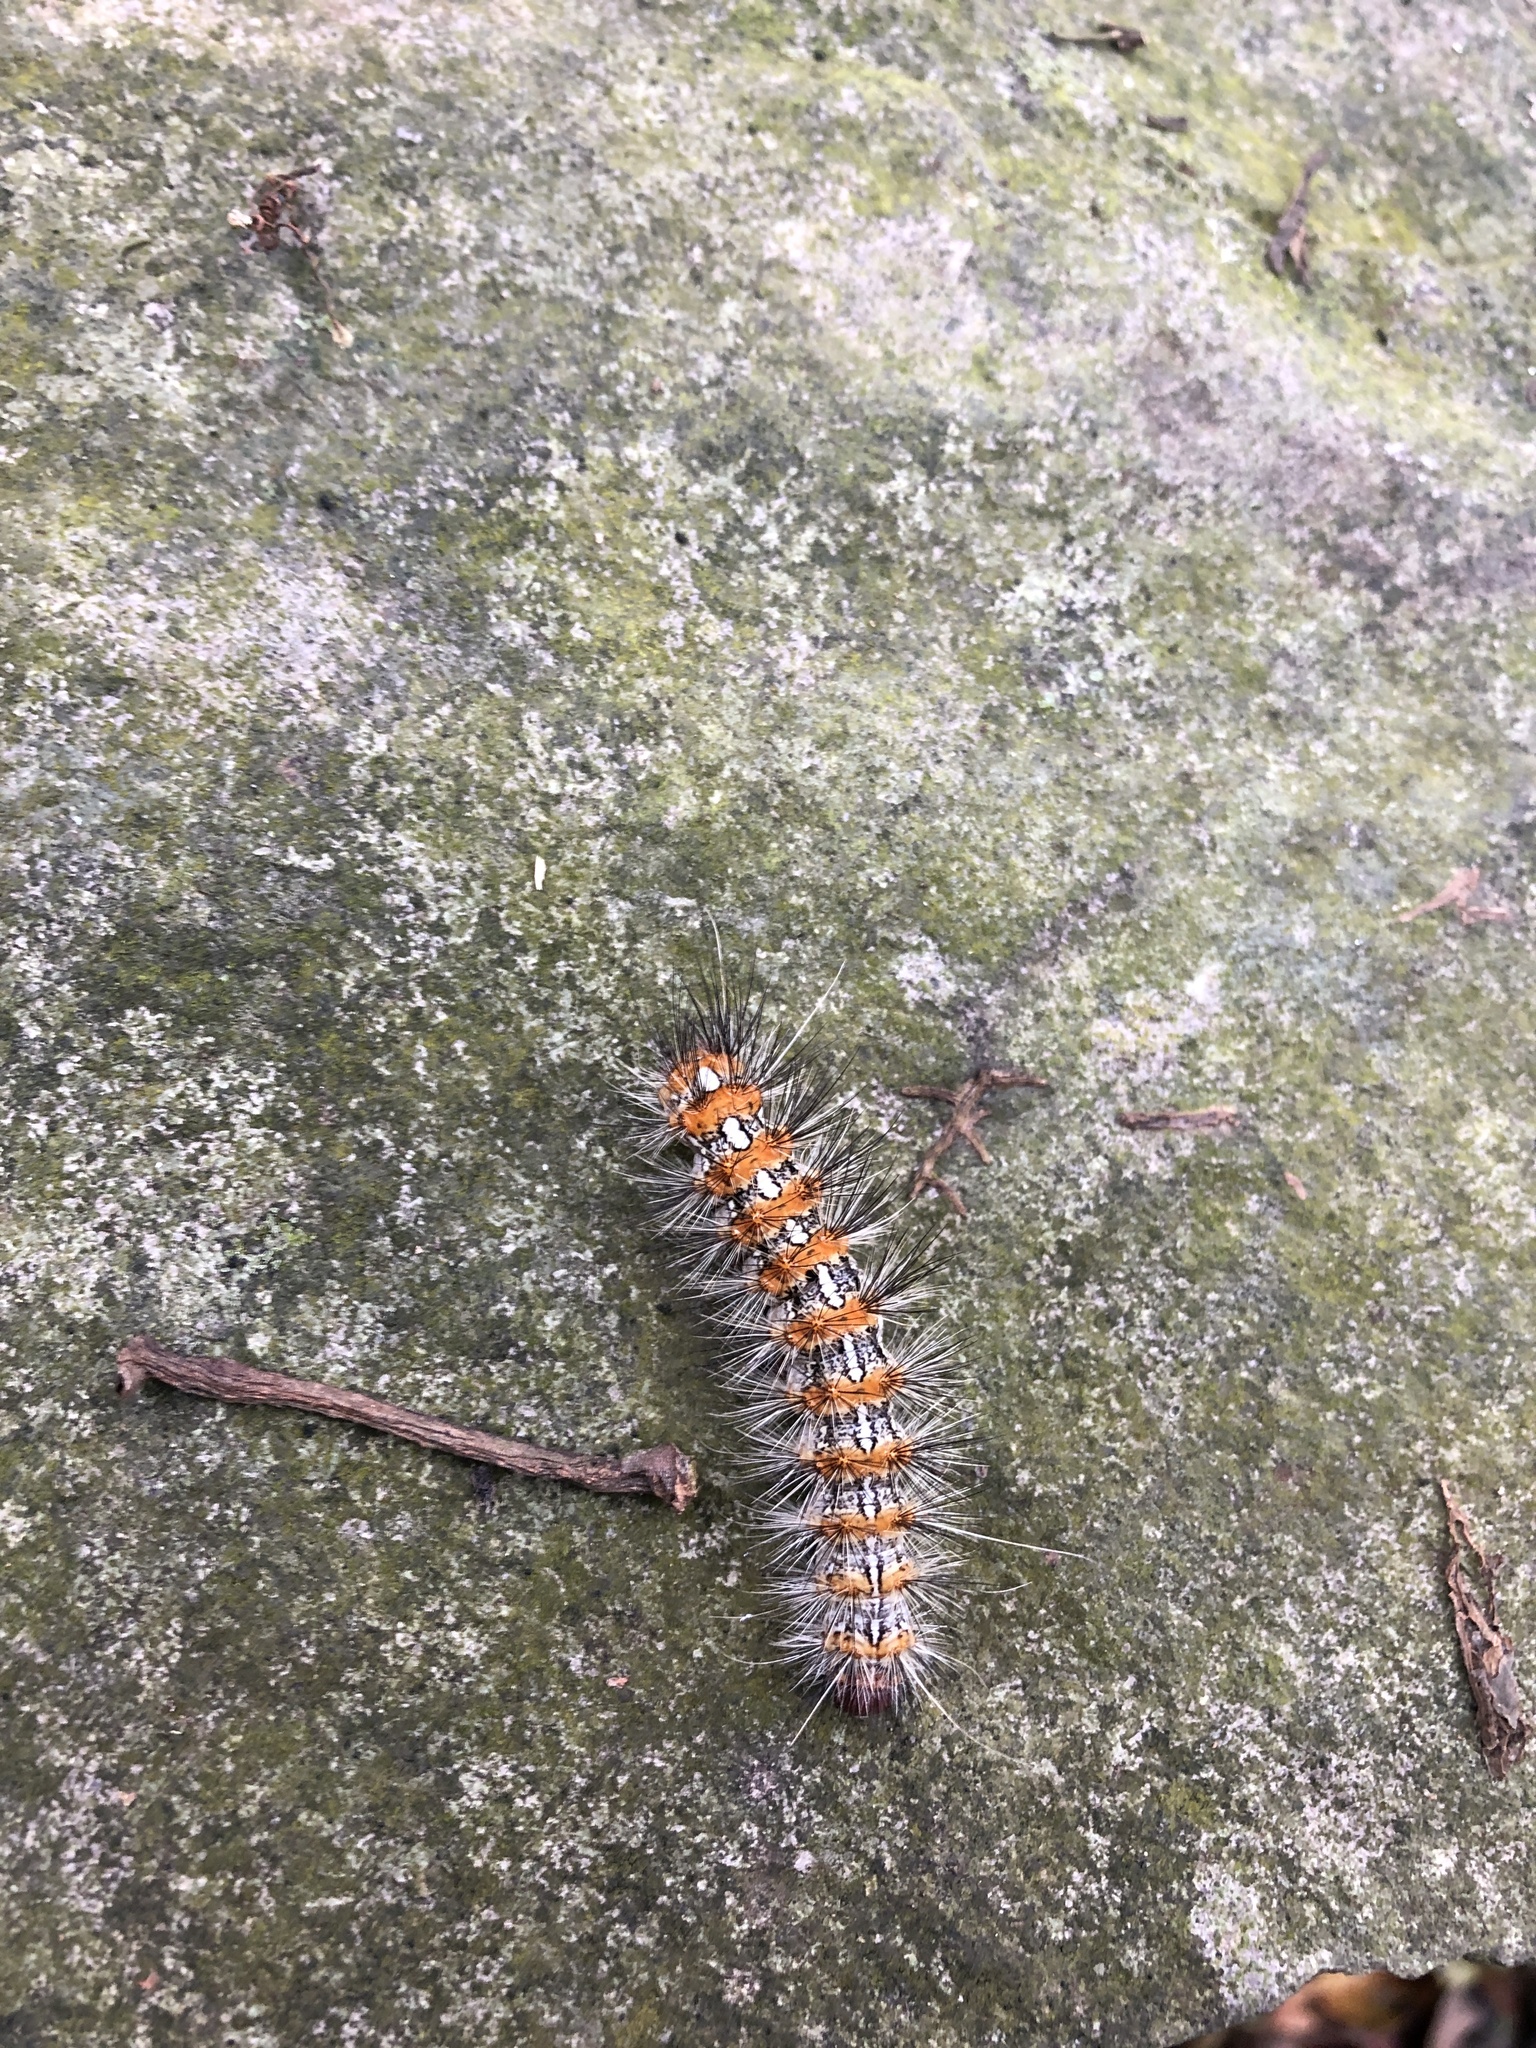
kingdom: Animalia
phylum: Arthropoda
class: Insecta
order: Lepidoptera
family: Erebidae
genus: Lemyra
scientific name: Lemyra imparilis
